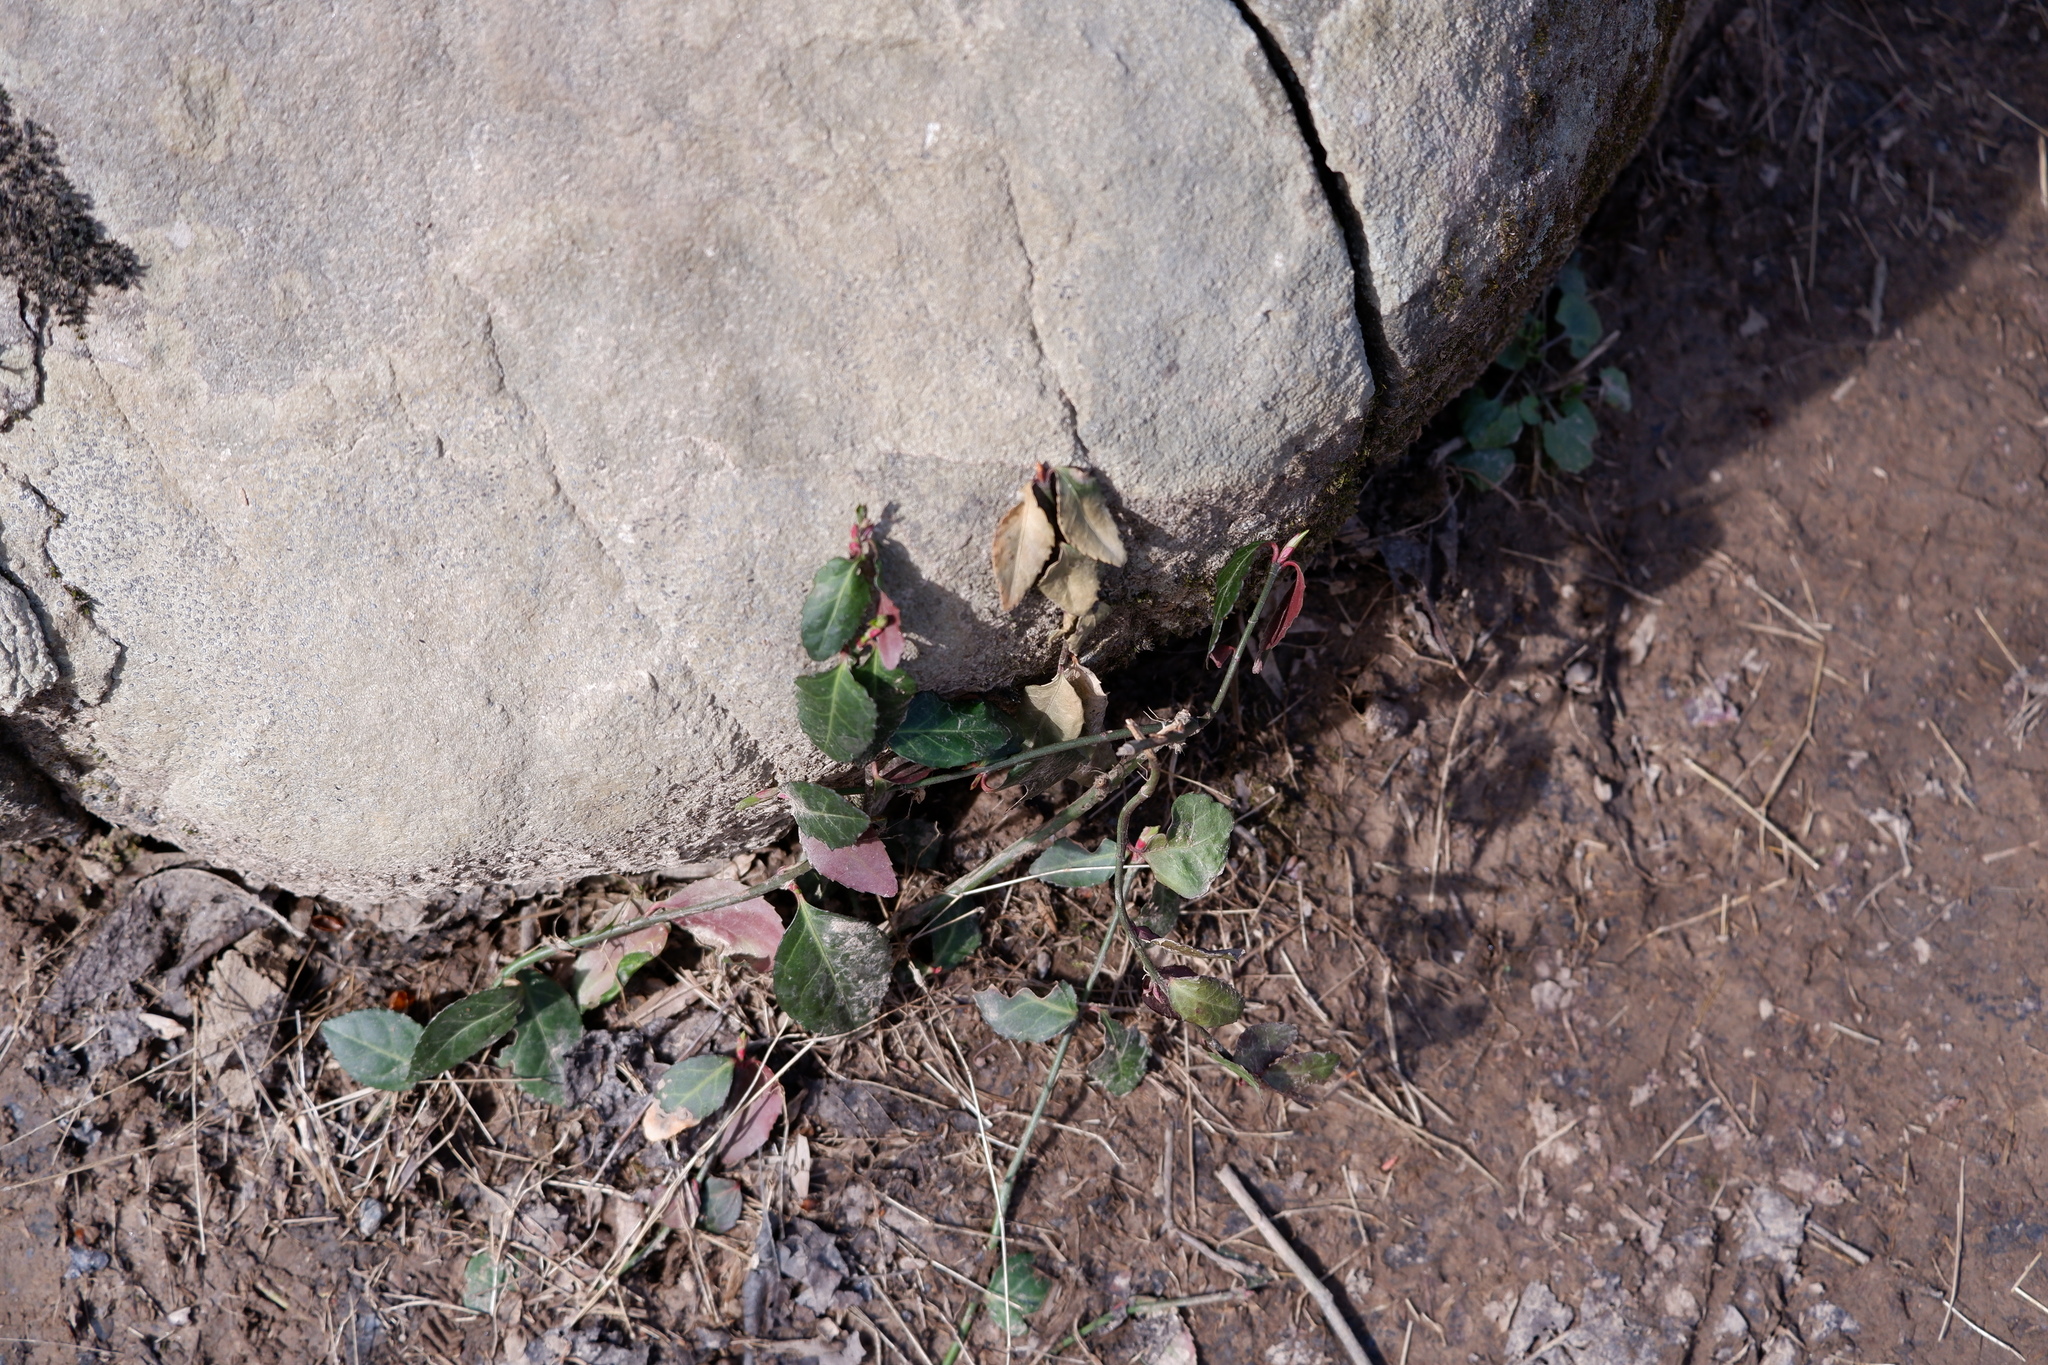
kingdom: Plantae
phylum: Tracheophyta
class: Magnoliopsida
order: Celastrales
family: Celastraceae
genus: Euonymus
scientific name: Euonymus fortunei
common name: Climbing euonymus
